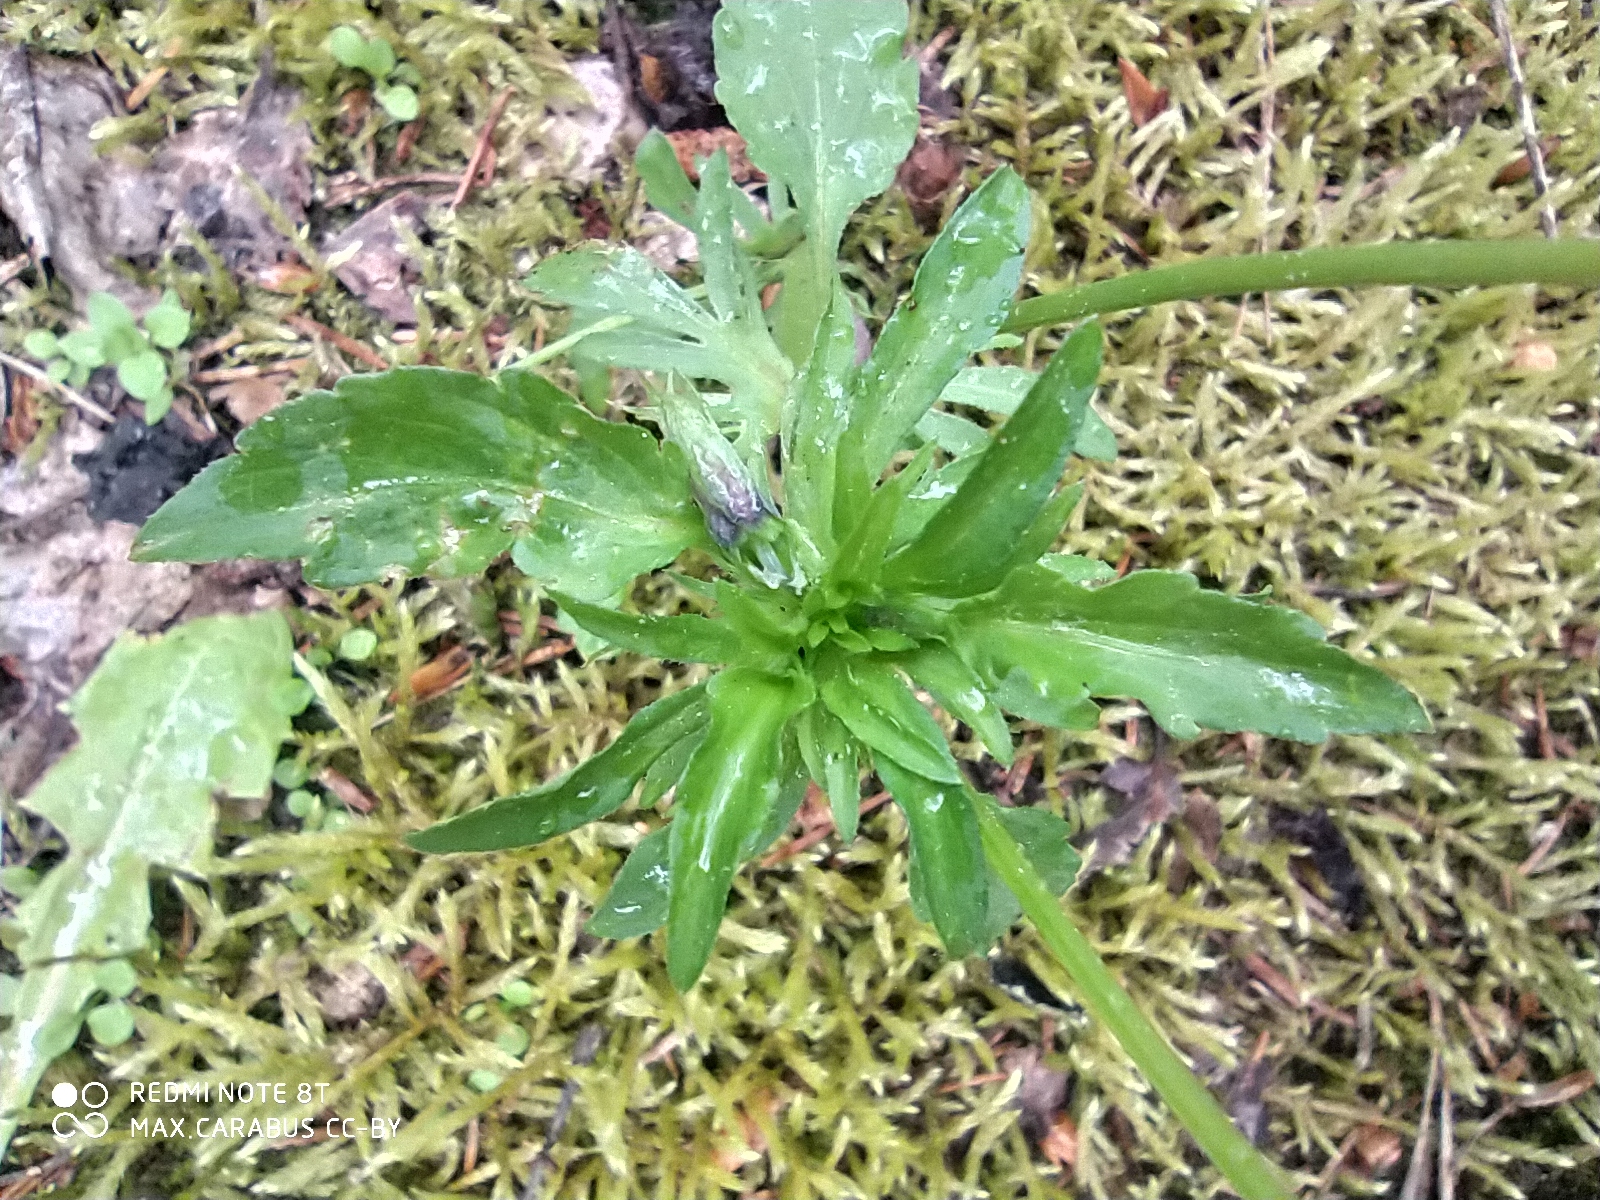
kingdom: Plantae
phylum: Tracheophyta
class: Magnoliopsida
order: Malpighiales
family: Violaceae
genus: Viola
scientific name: Viola wittrockiana
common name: Garden pansy
